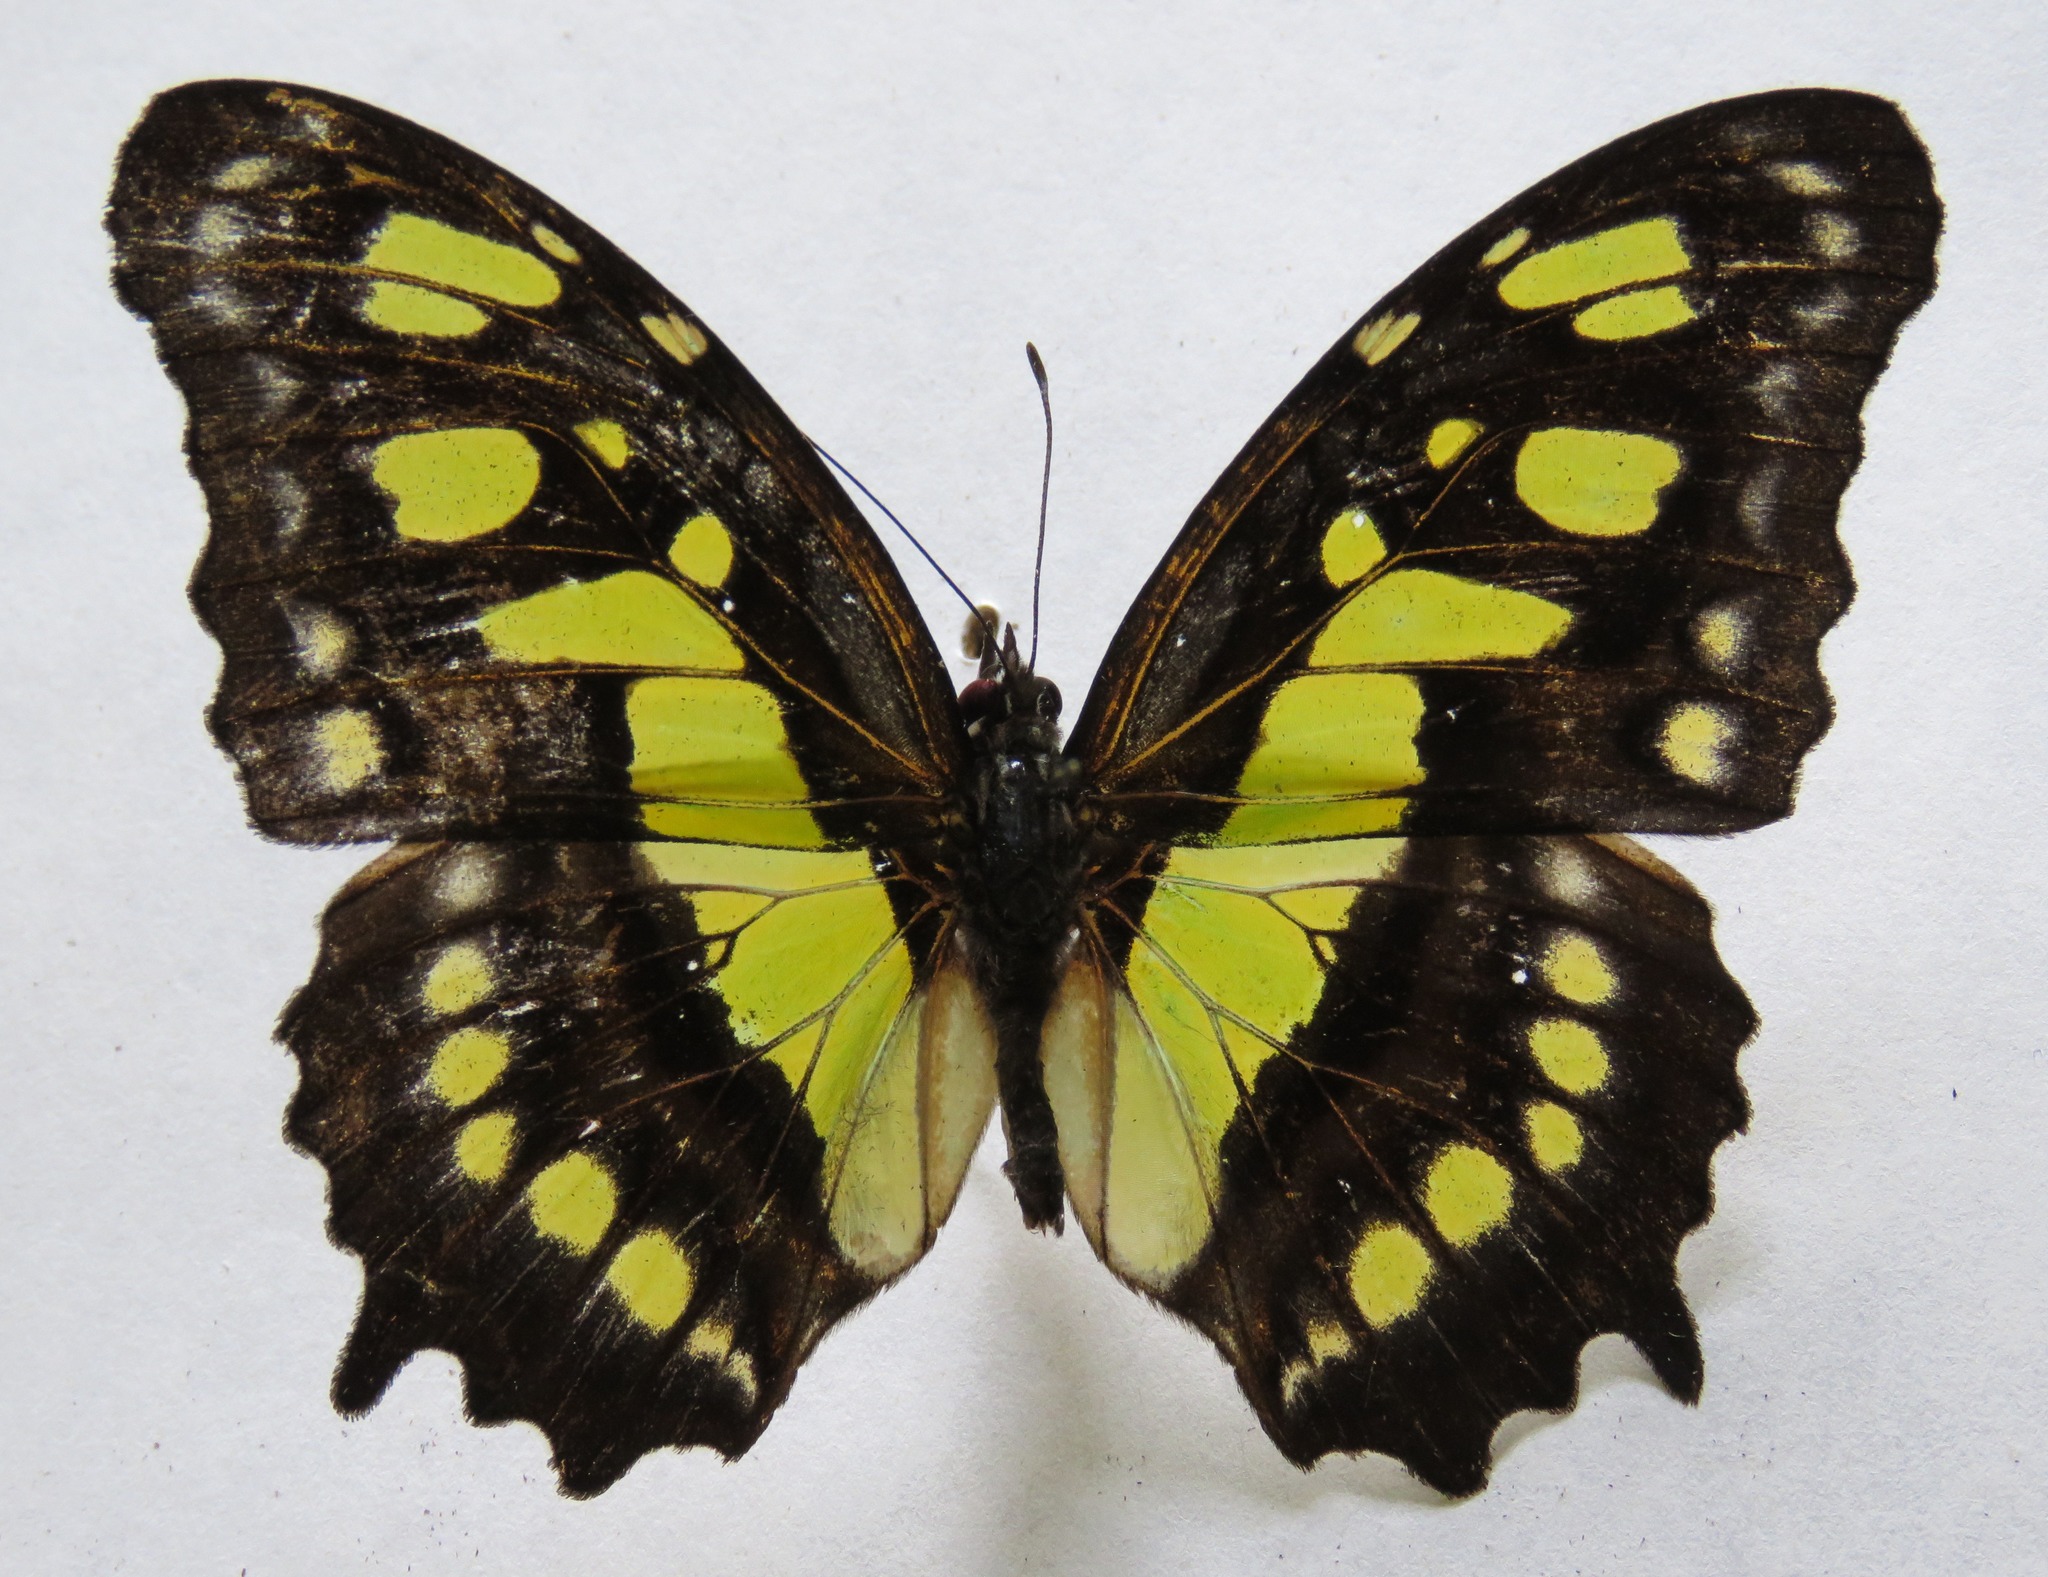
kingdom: Animalia
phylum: Arthropoda
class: Insecta
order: Lepidoptera
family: Nymphalidae
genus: Siproeta
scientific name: Siproeta stelenes
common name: Malachite
